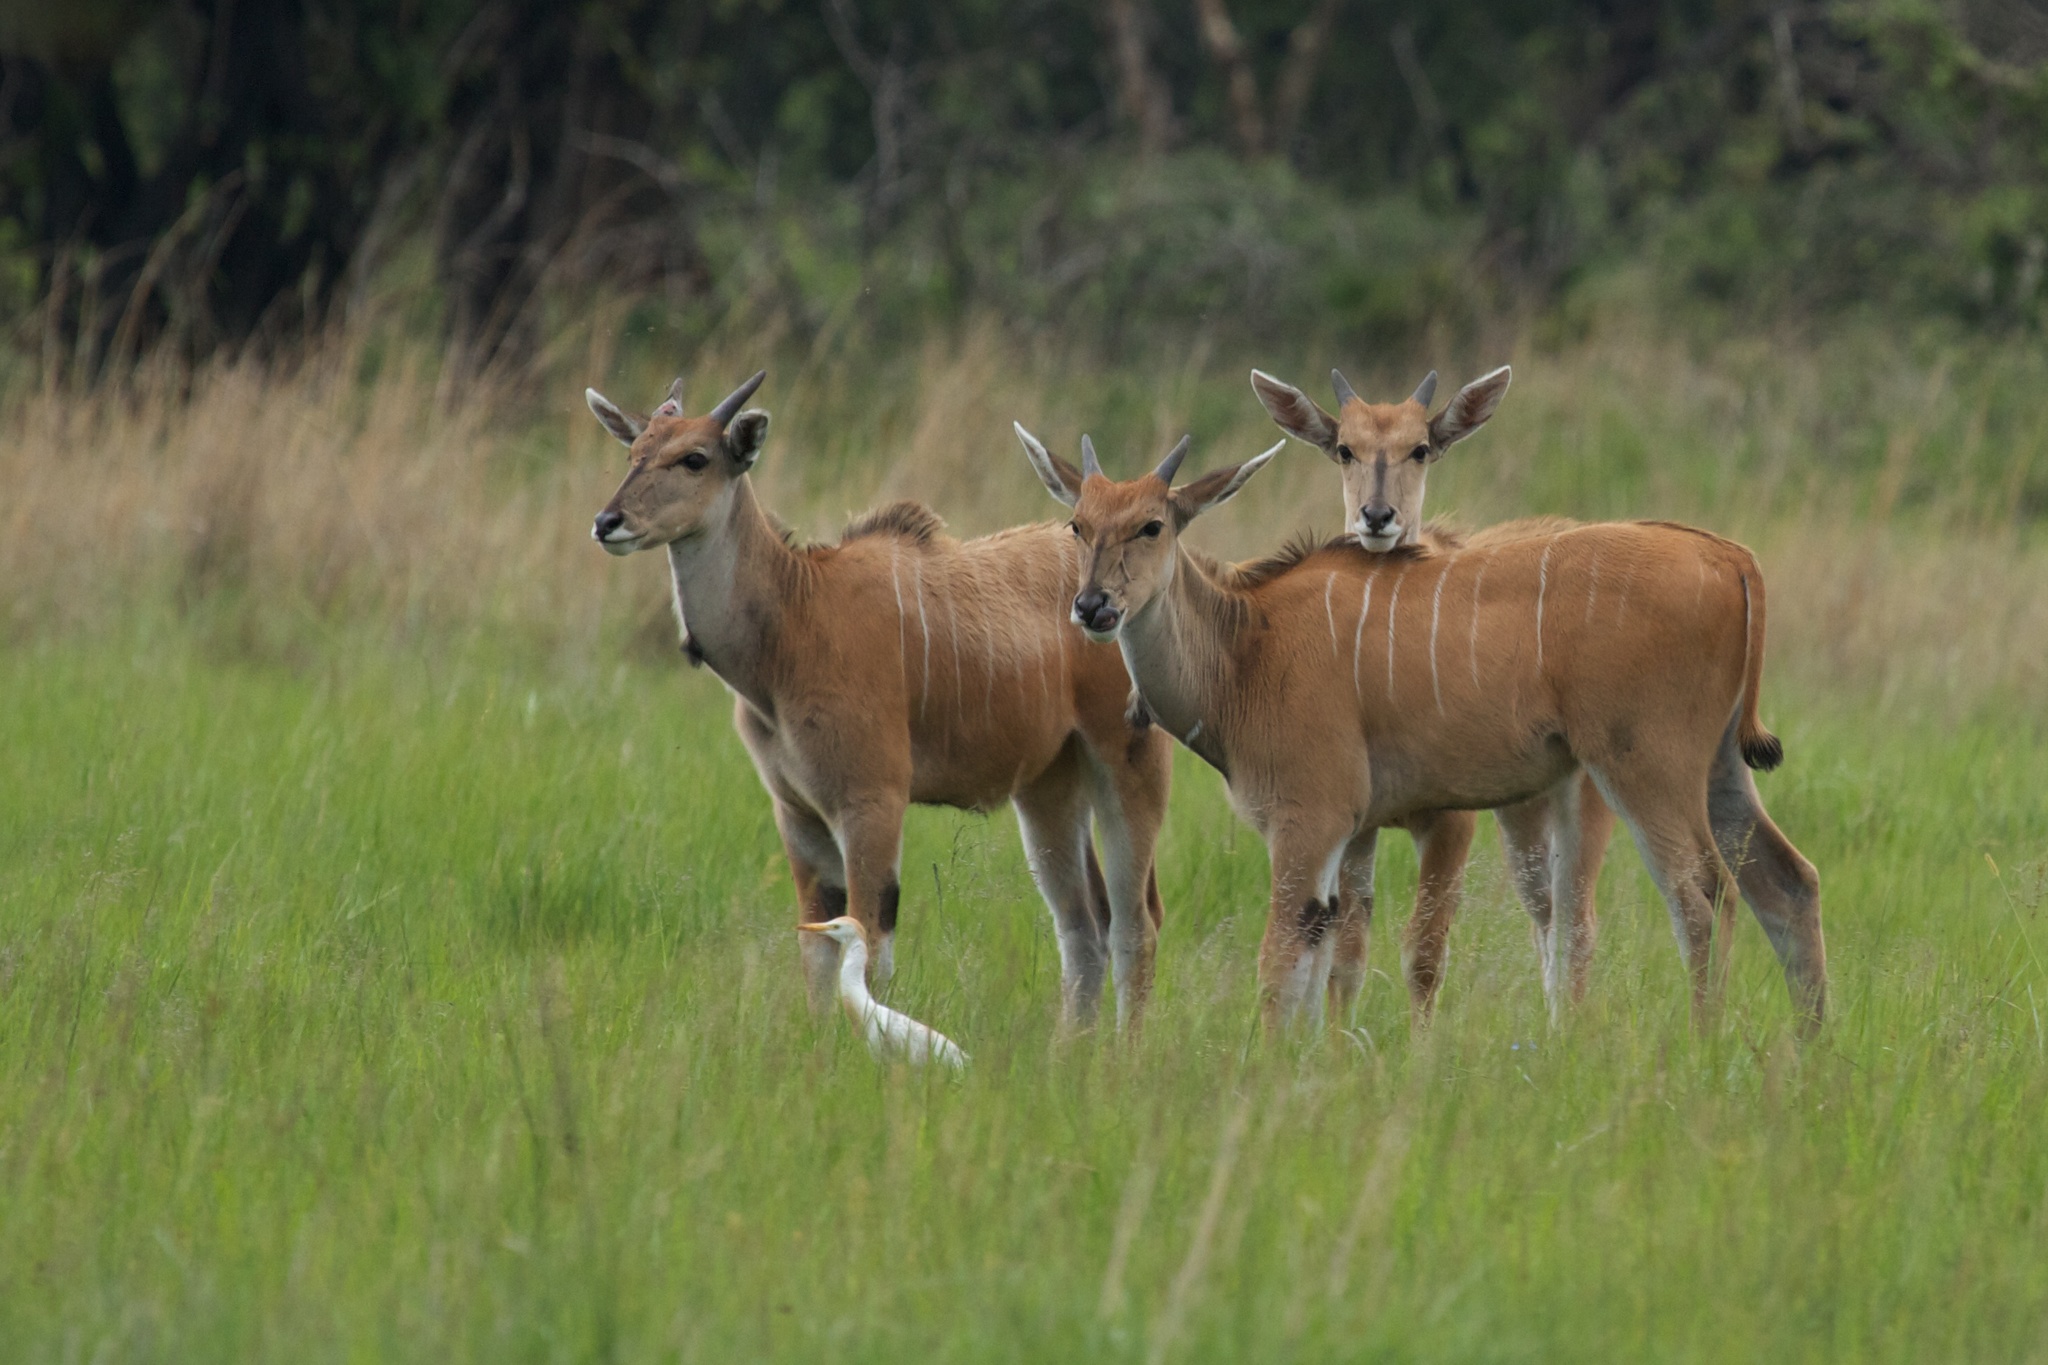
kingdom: Animalia
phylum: Chordata
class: Mammalia
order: Artiodactyla
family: Bovidae
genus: Taurotragus
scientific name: Taurotragus oryx
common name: Common eland
